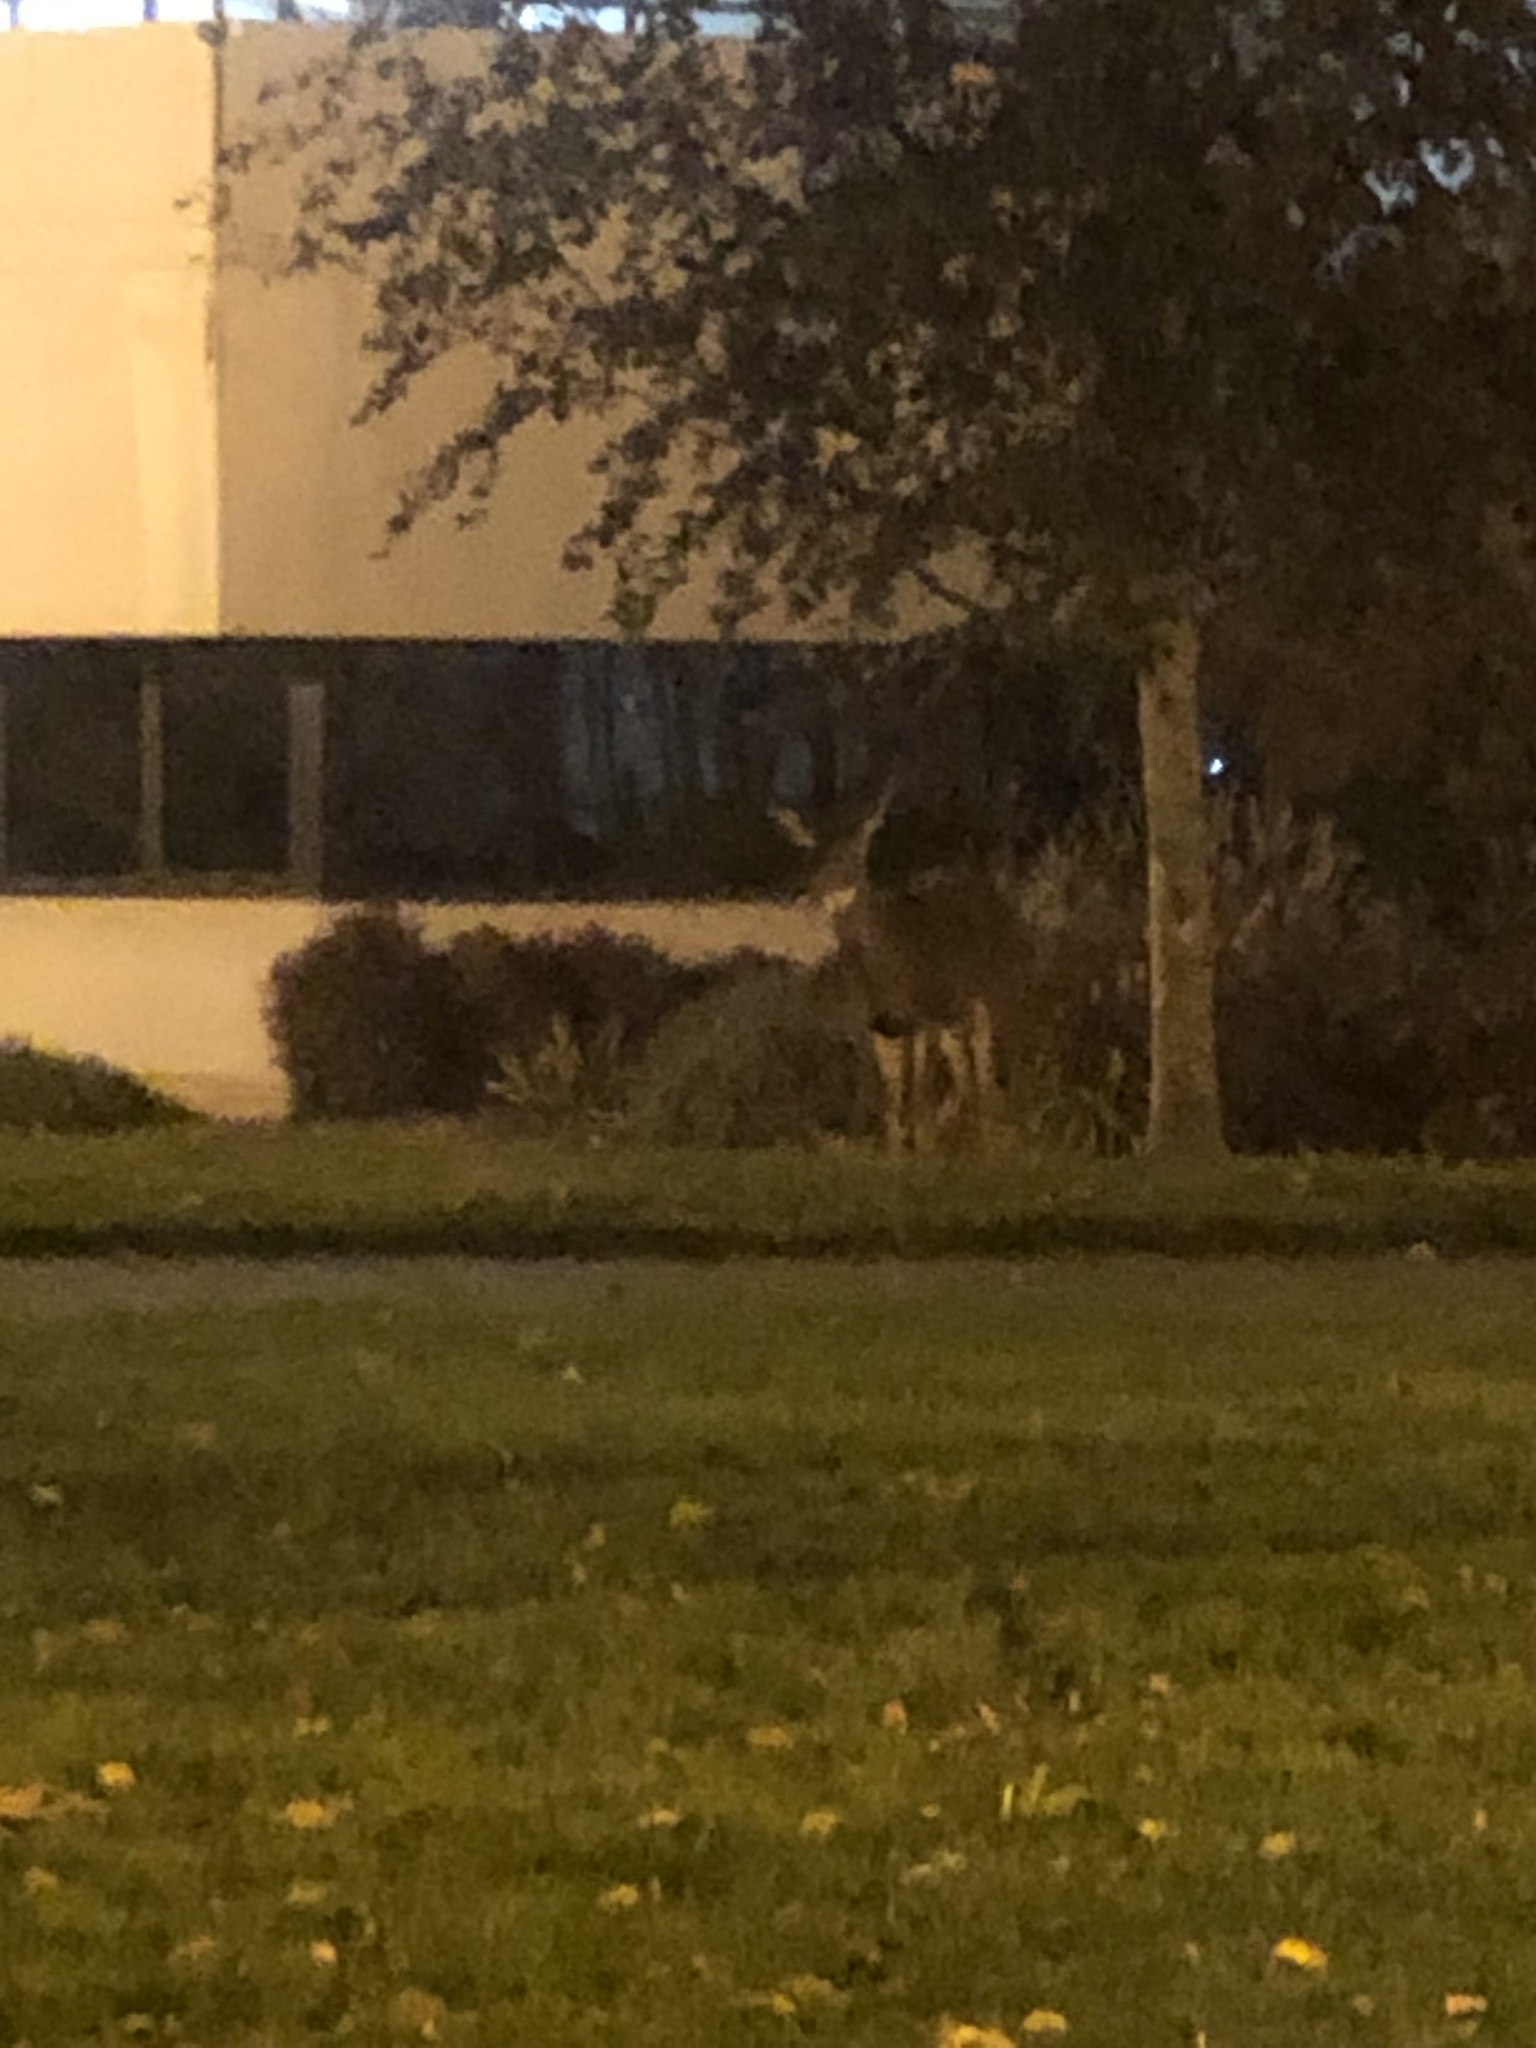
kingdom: Animalia
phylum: Chordata
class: Mammalia
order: Artiodactyla
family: Cervidae
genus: Odocoileus
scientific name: Odocoileus hemionus
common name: Mule deer
